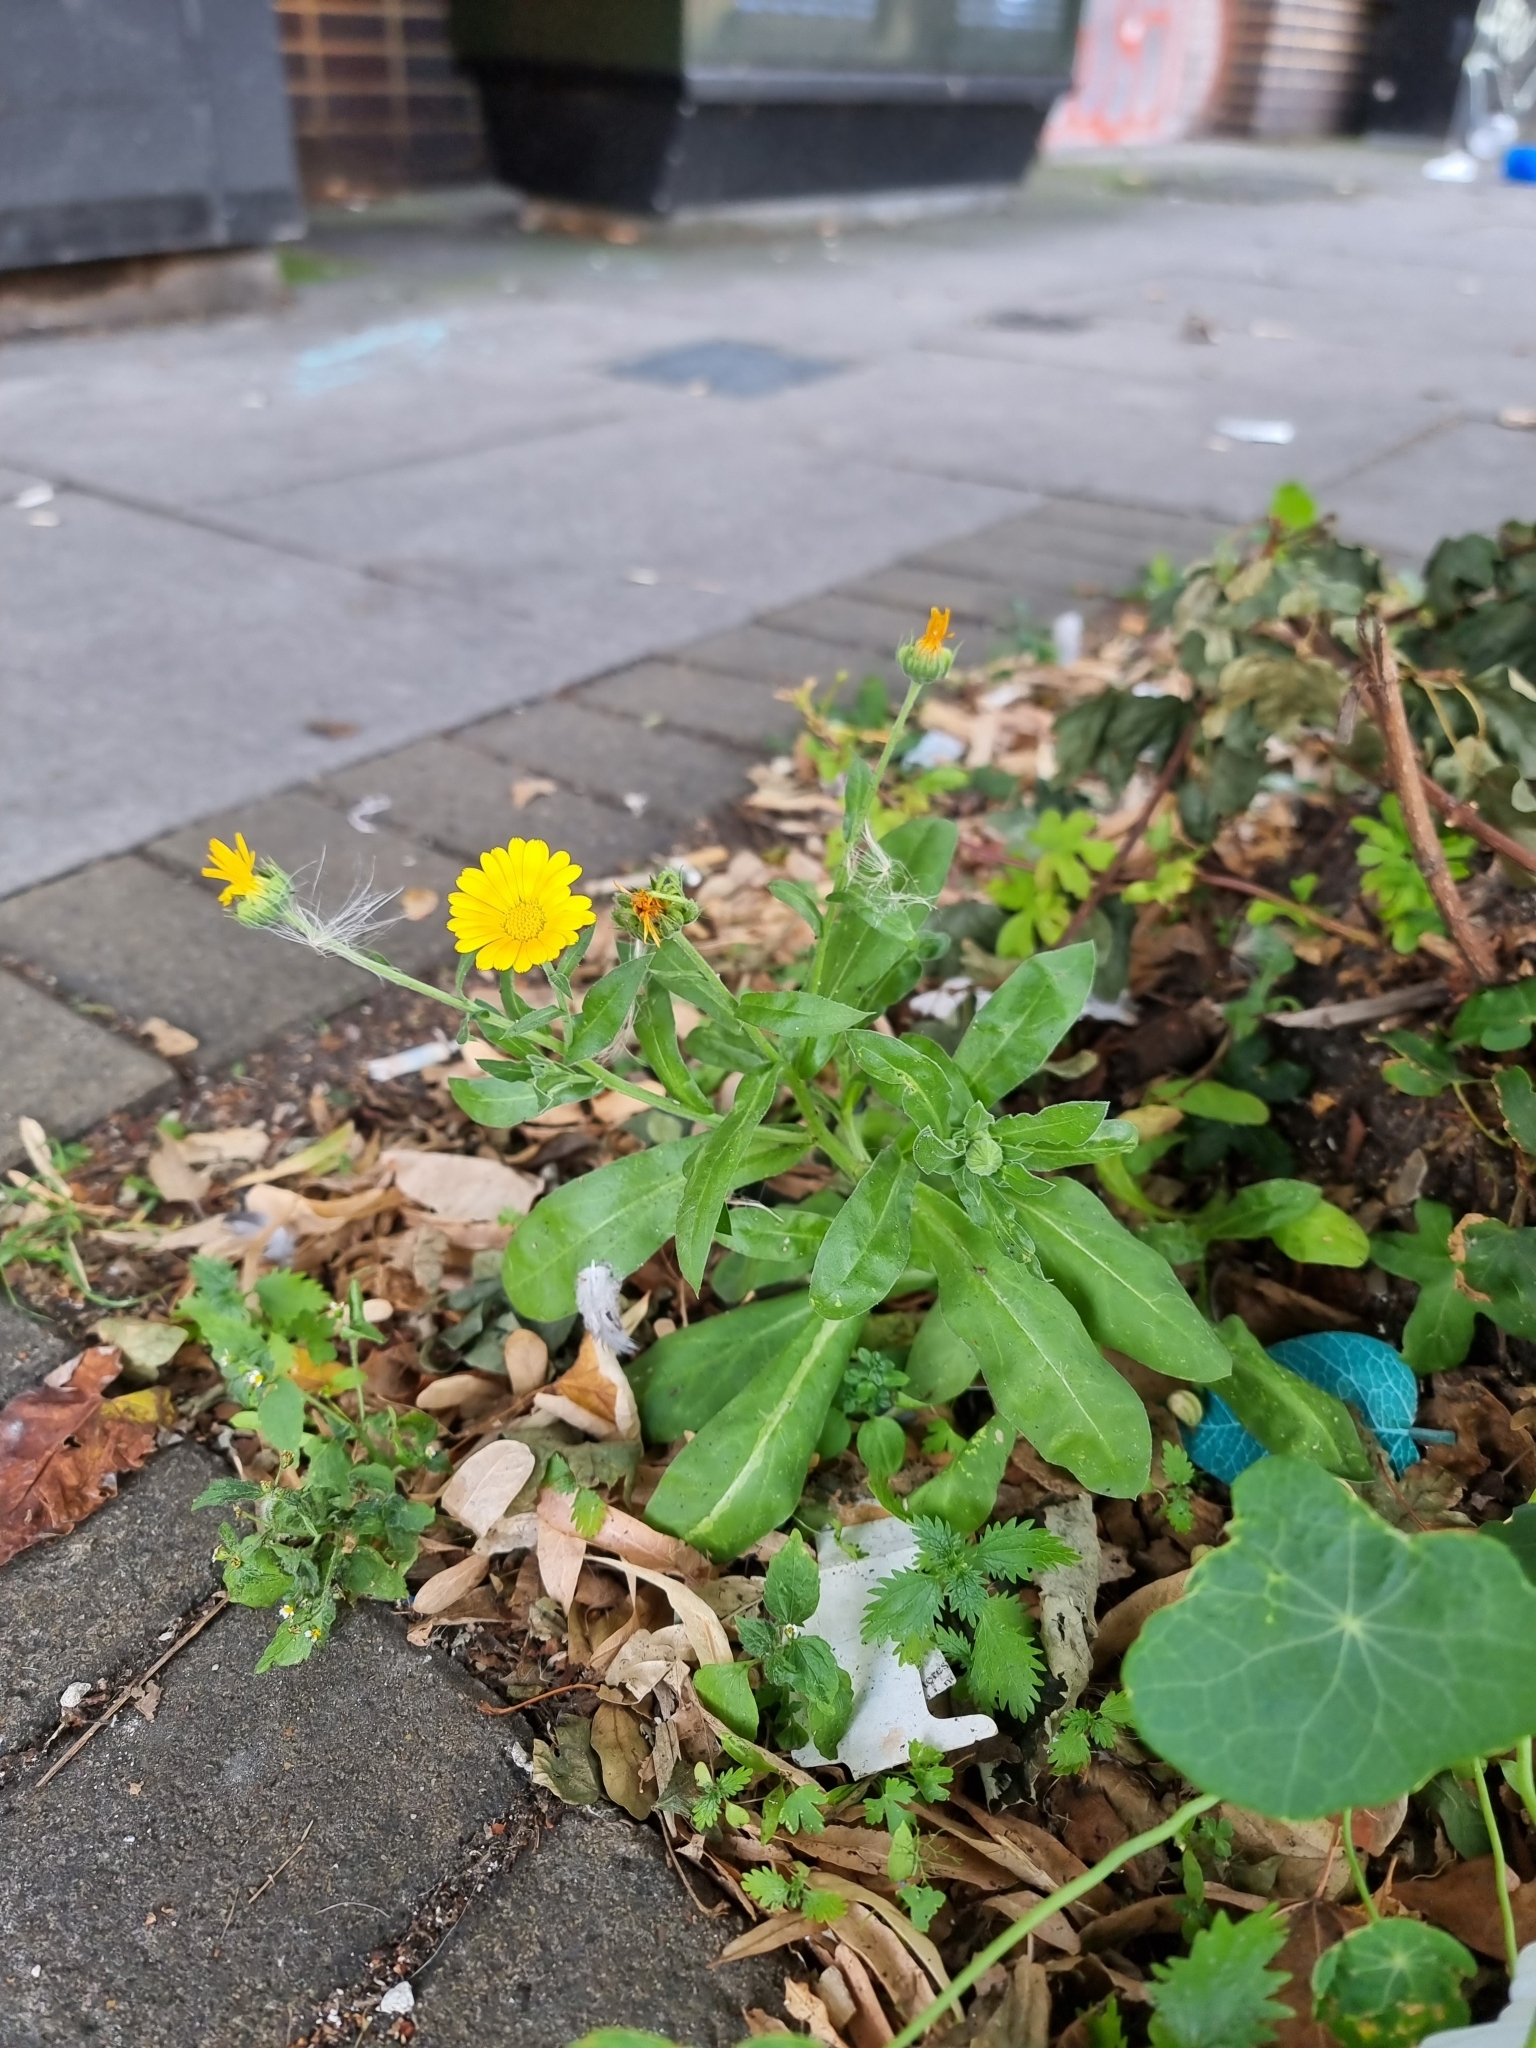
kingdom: Plantae
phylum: Tracheophyta
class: Magnoliopsida
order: Asterales
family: Asteraceae
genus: Calendula
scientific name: Calendula officinalis
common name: Pot marigold
